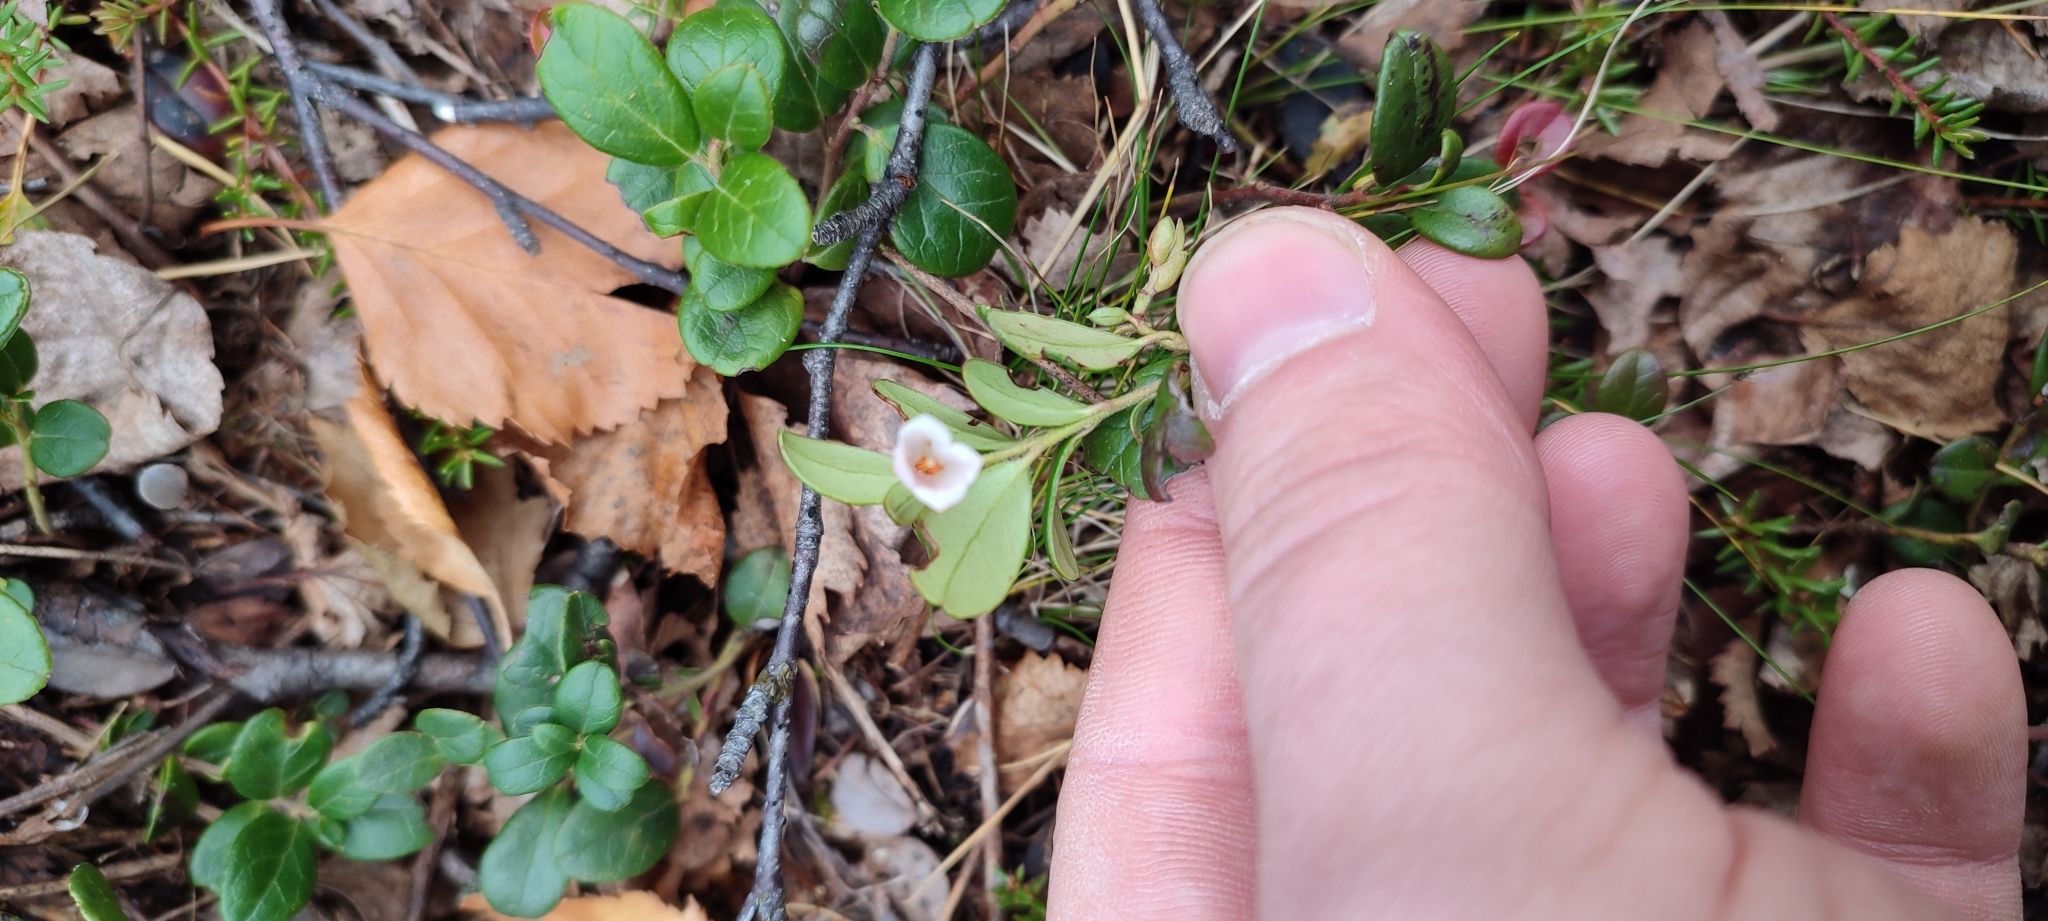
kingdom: Plantae
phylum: Tracheophyta
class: Magnoliopsida
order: Ericales
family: Ericaceae
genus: Vaccinium
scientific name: Vaccinium vitis-idaea
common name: Cowberry
